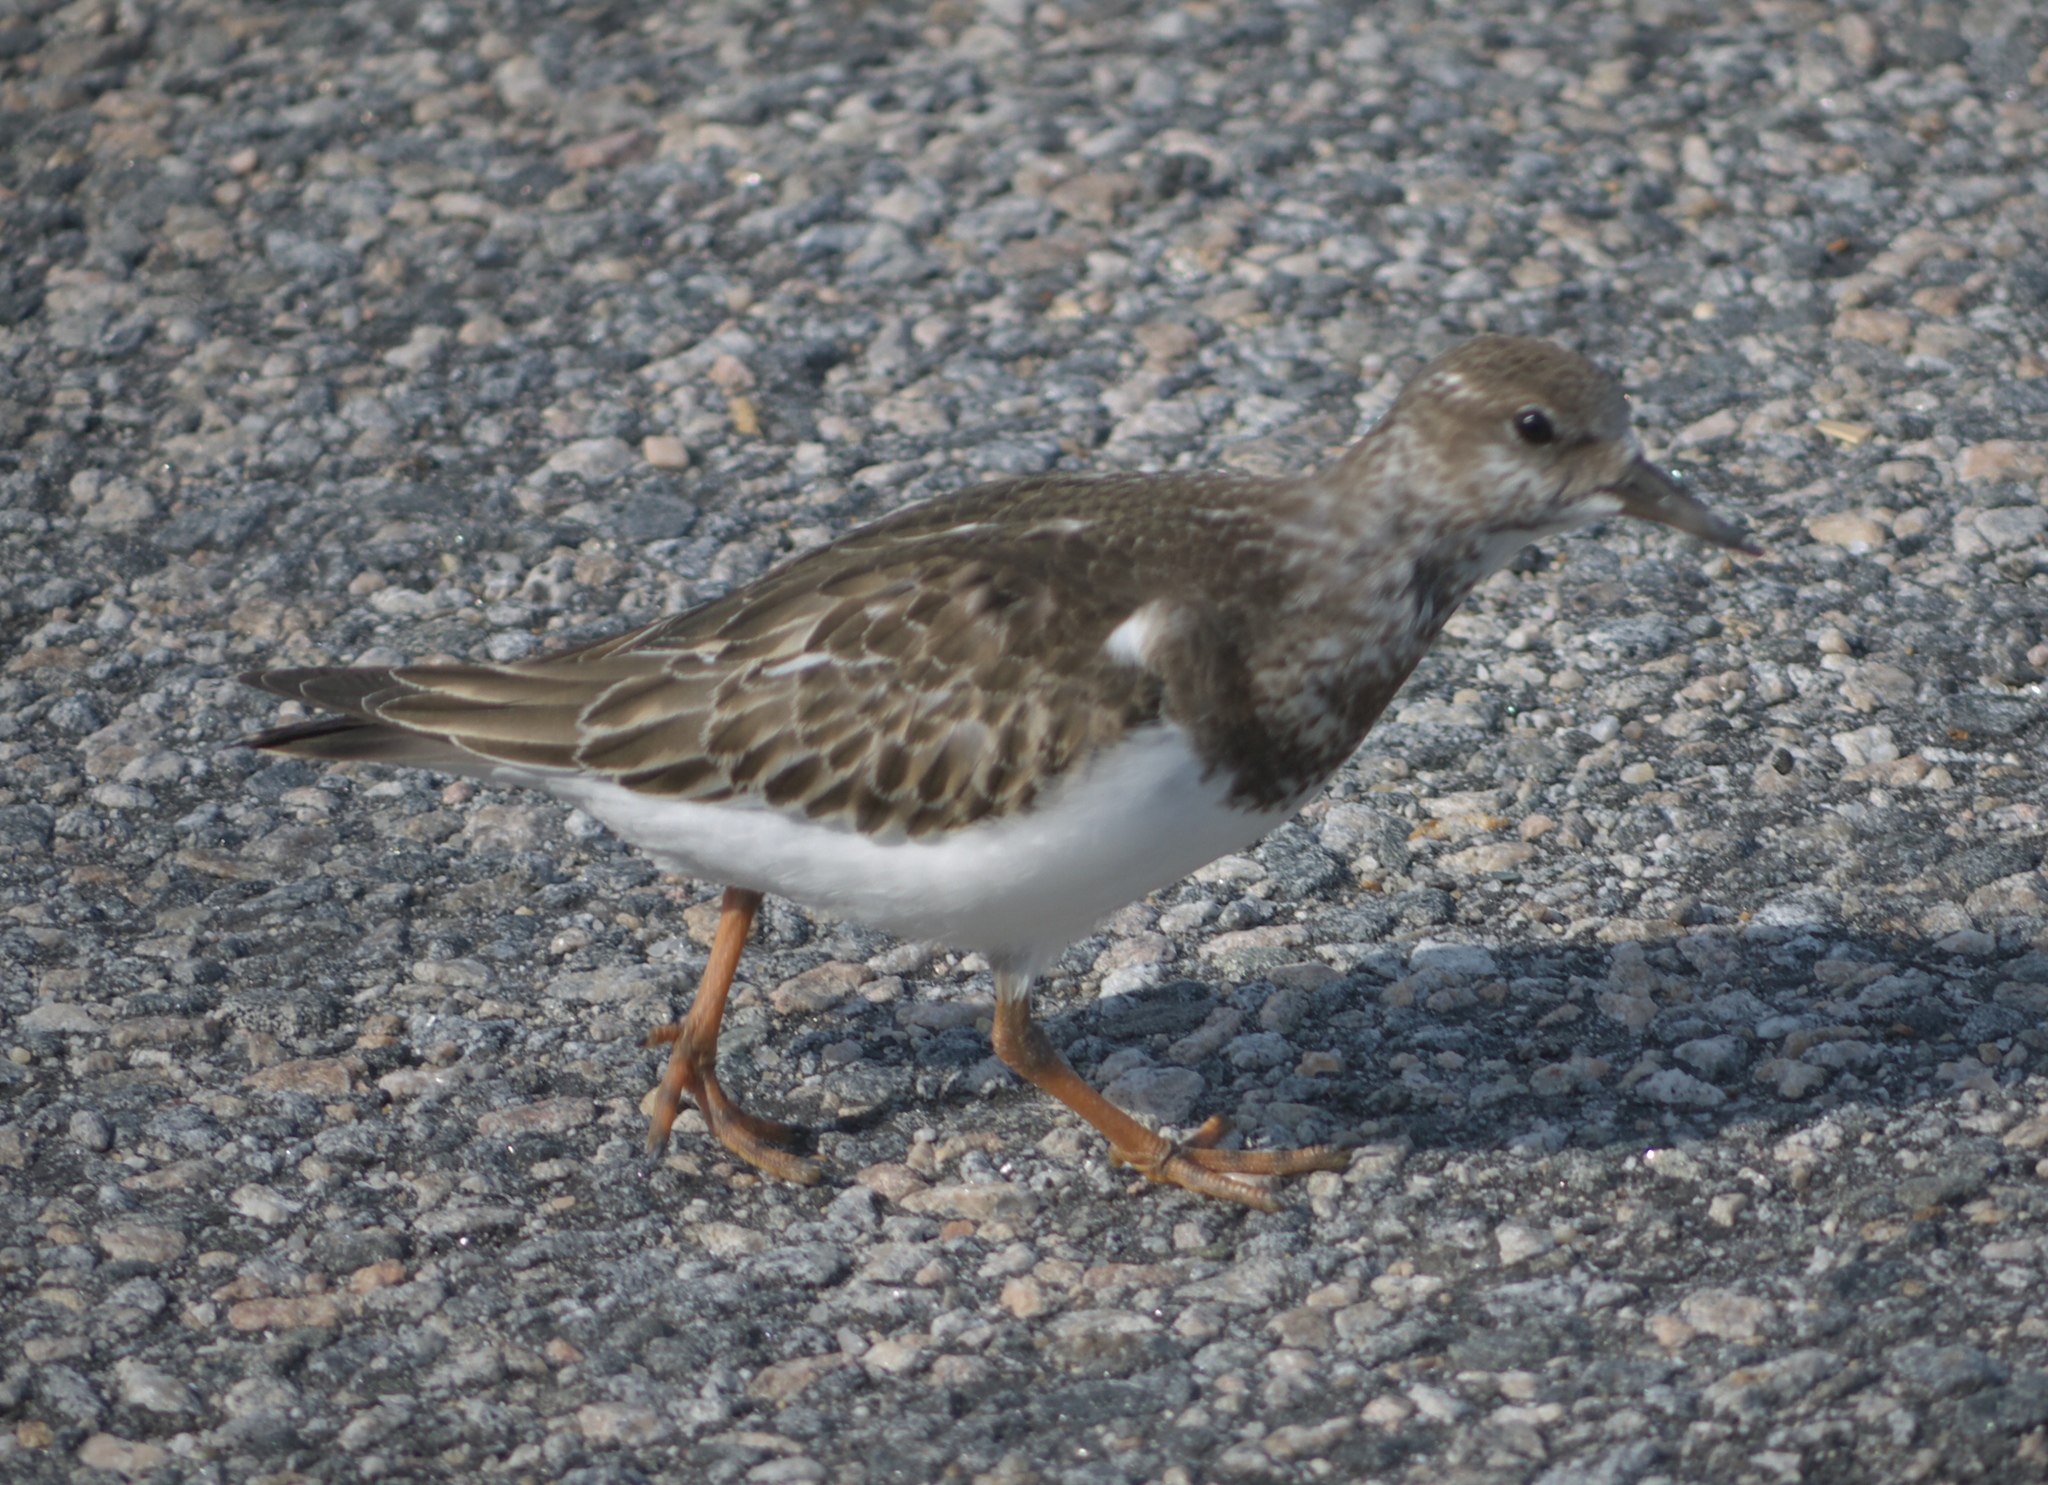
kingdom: Animalia
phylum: Chordata
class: Aves
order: Charadriiformes
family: Scolopacidae
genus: Arenaria
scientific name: Arenaria interpres
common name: Ruddy turnstone
